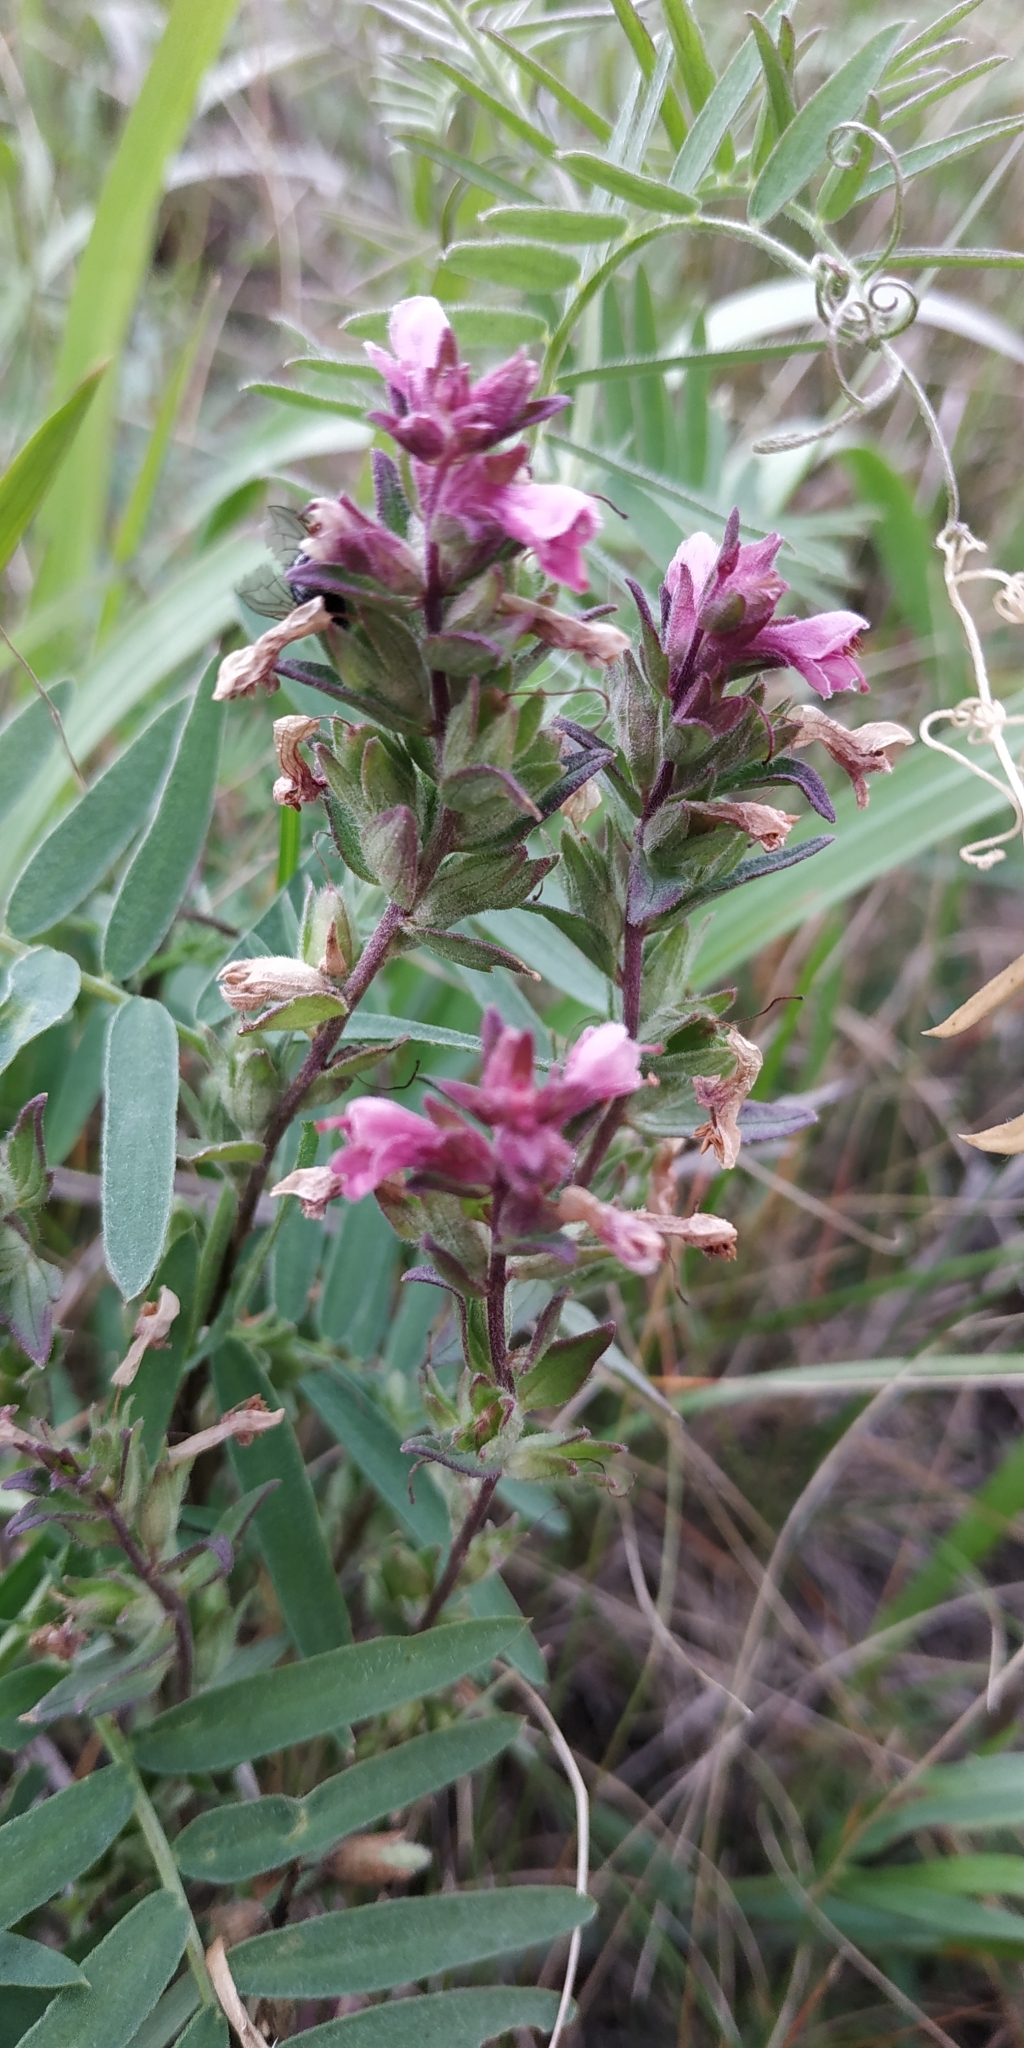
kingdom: Plantae
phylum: Tracheophyta
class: Magnoliopsida
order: Lamiales
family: Orobanchaceae
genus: Odontites
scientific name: Odontites vulgaris
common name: Broomrape
